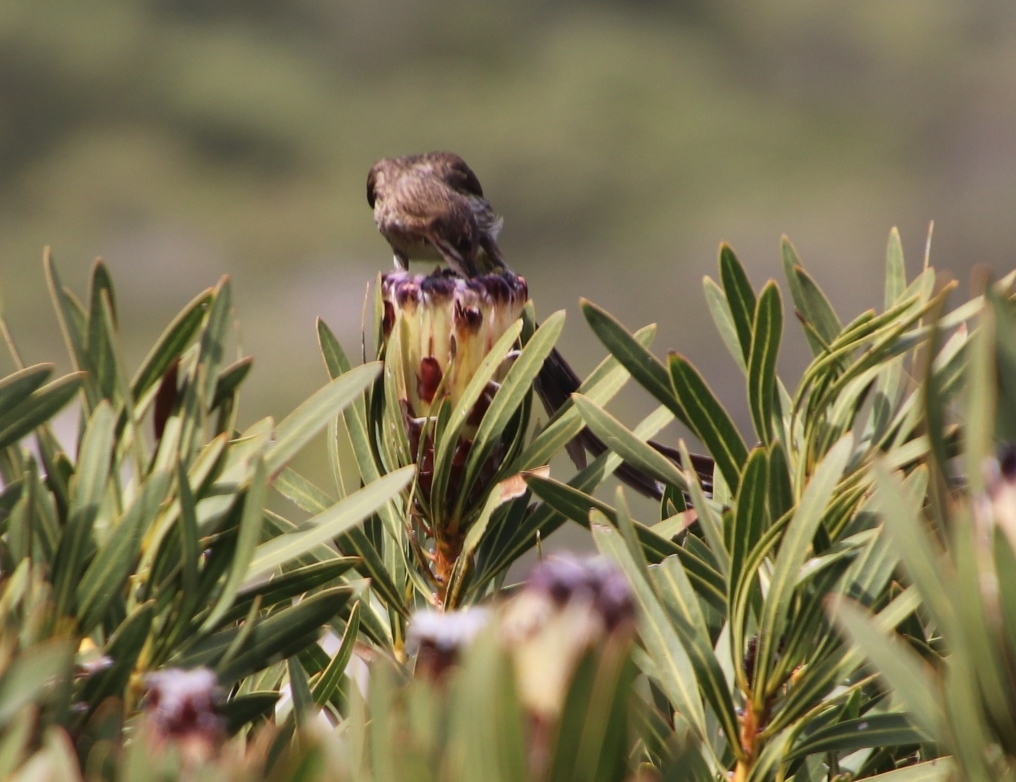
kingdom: Plantae
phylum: Tracheophyta
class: Magnoliopsida
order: Proteales
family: Proteaceae
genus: Protea
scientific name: Protea lepidocarpodendron
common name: Black-bearded protea
